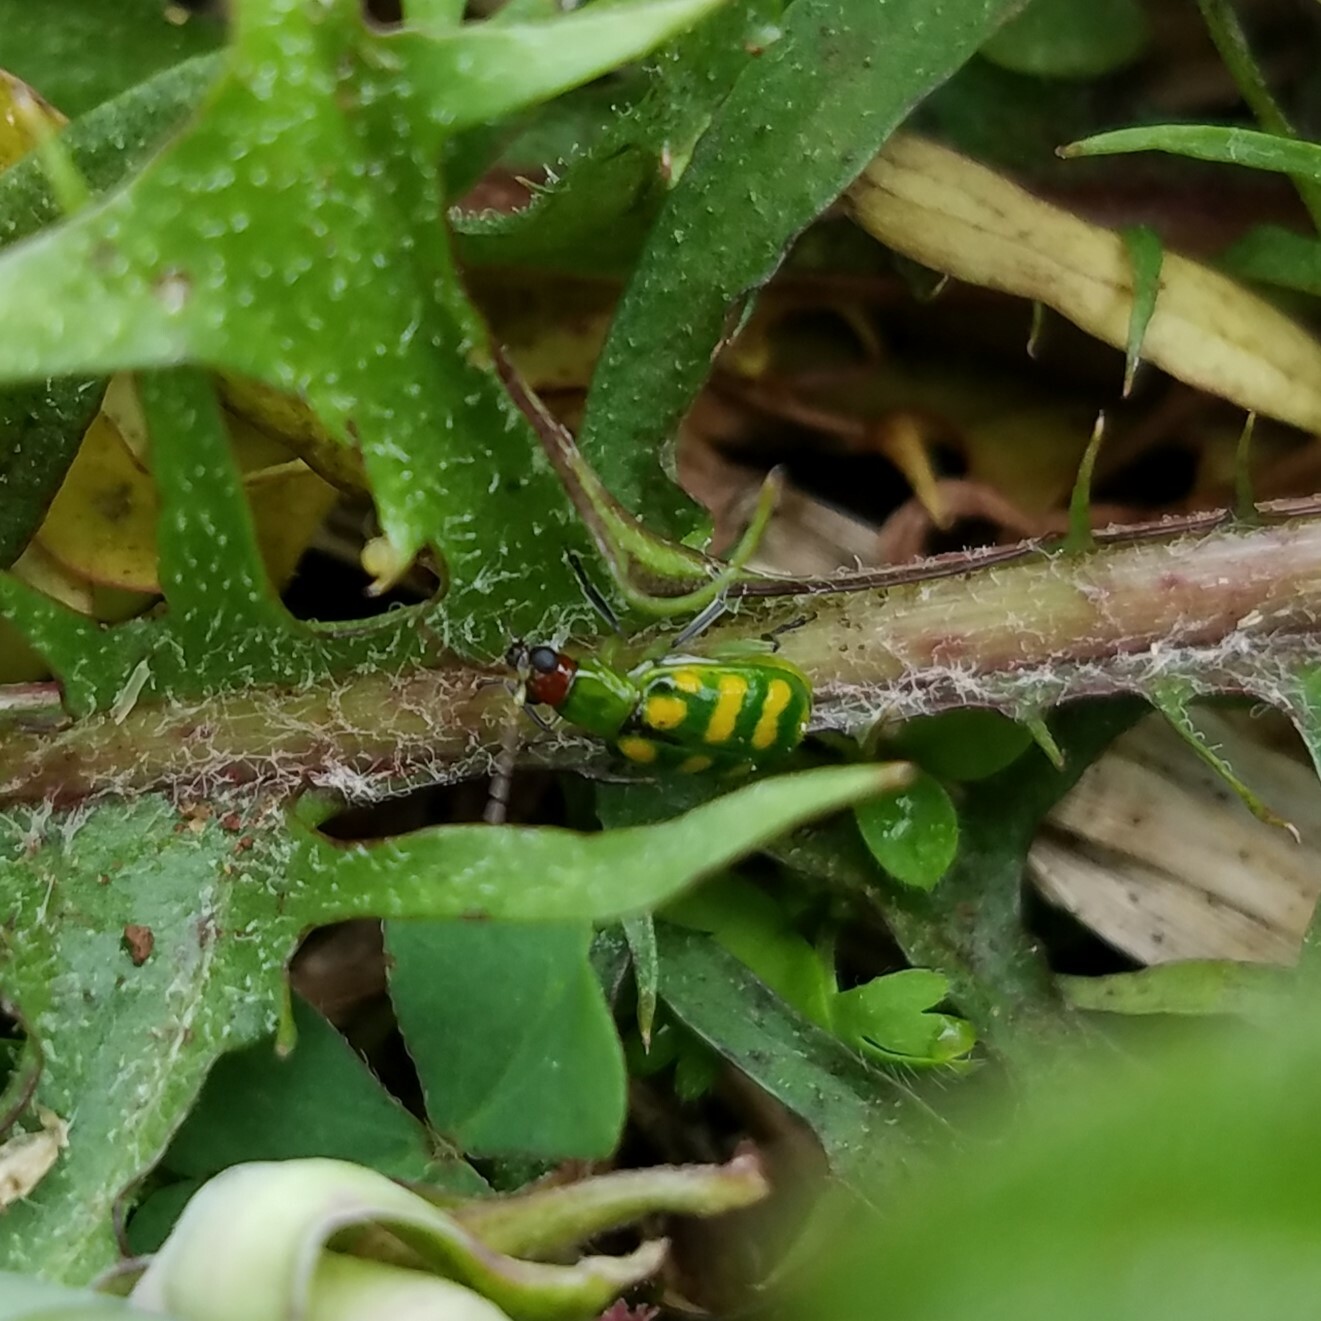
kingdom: Animalia
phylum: Arthropoda
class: Insecta
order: Coleoptera
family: Chrysomelidae
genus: Diabrotica
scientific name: Diabrotica balteata
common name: Leaf beetle
